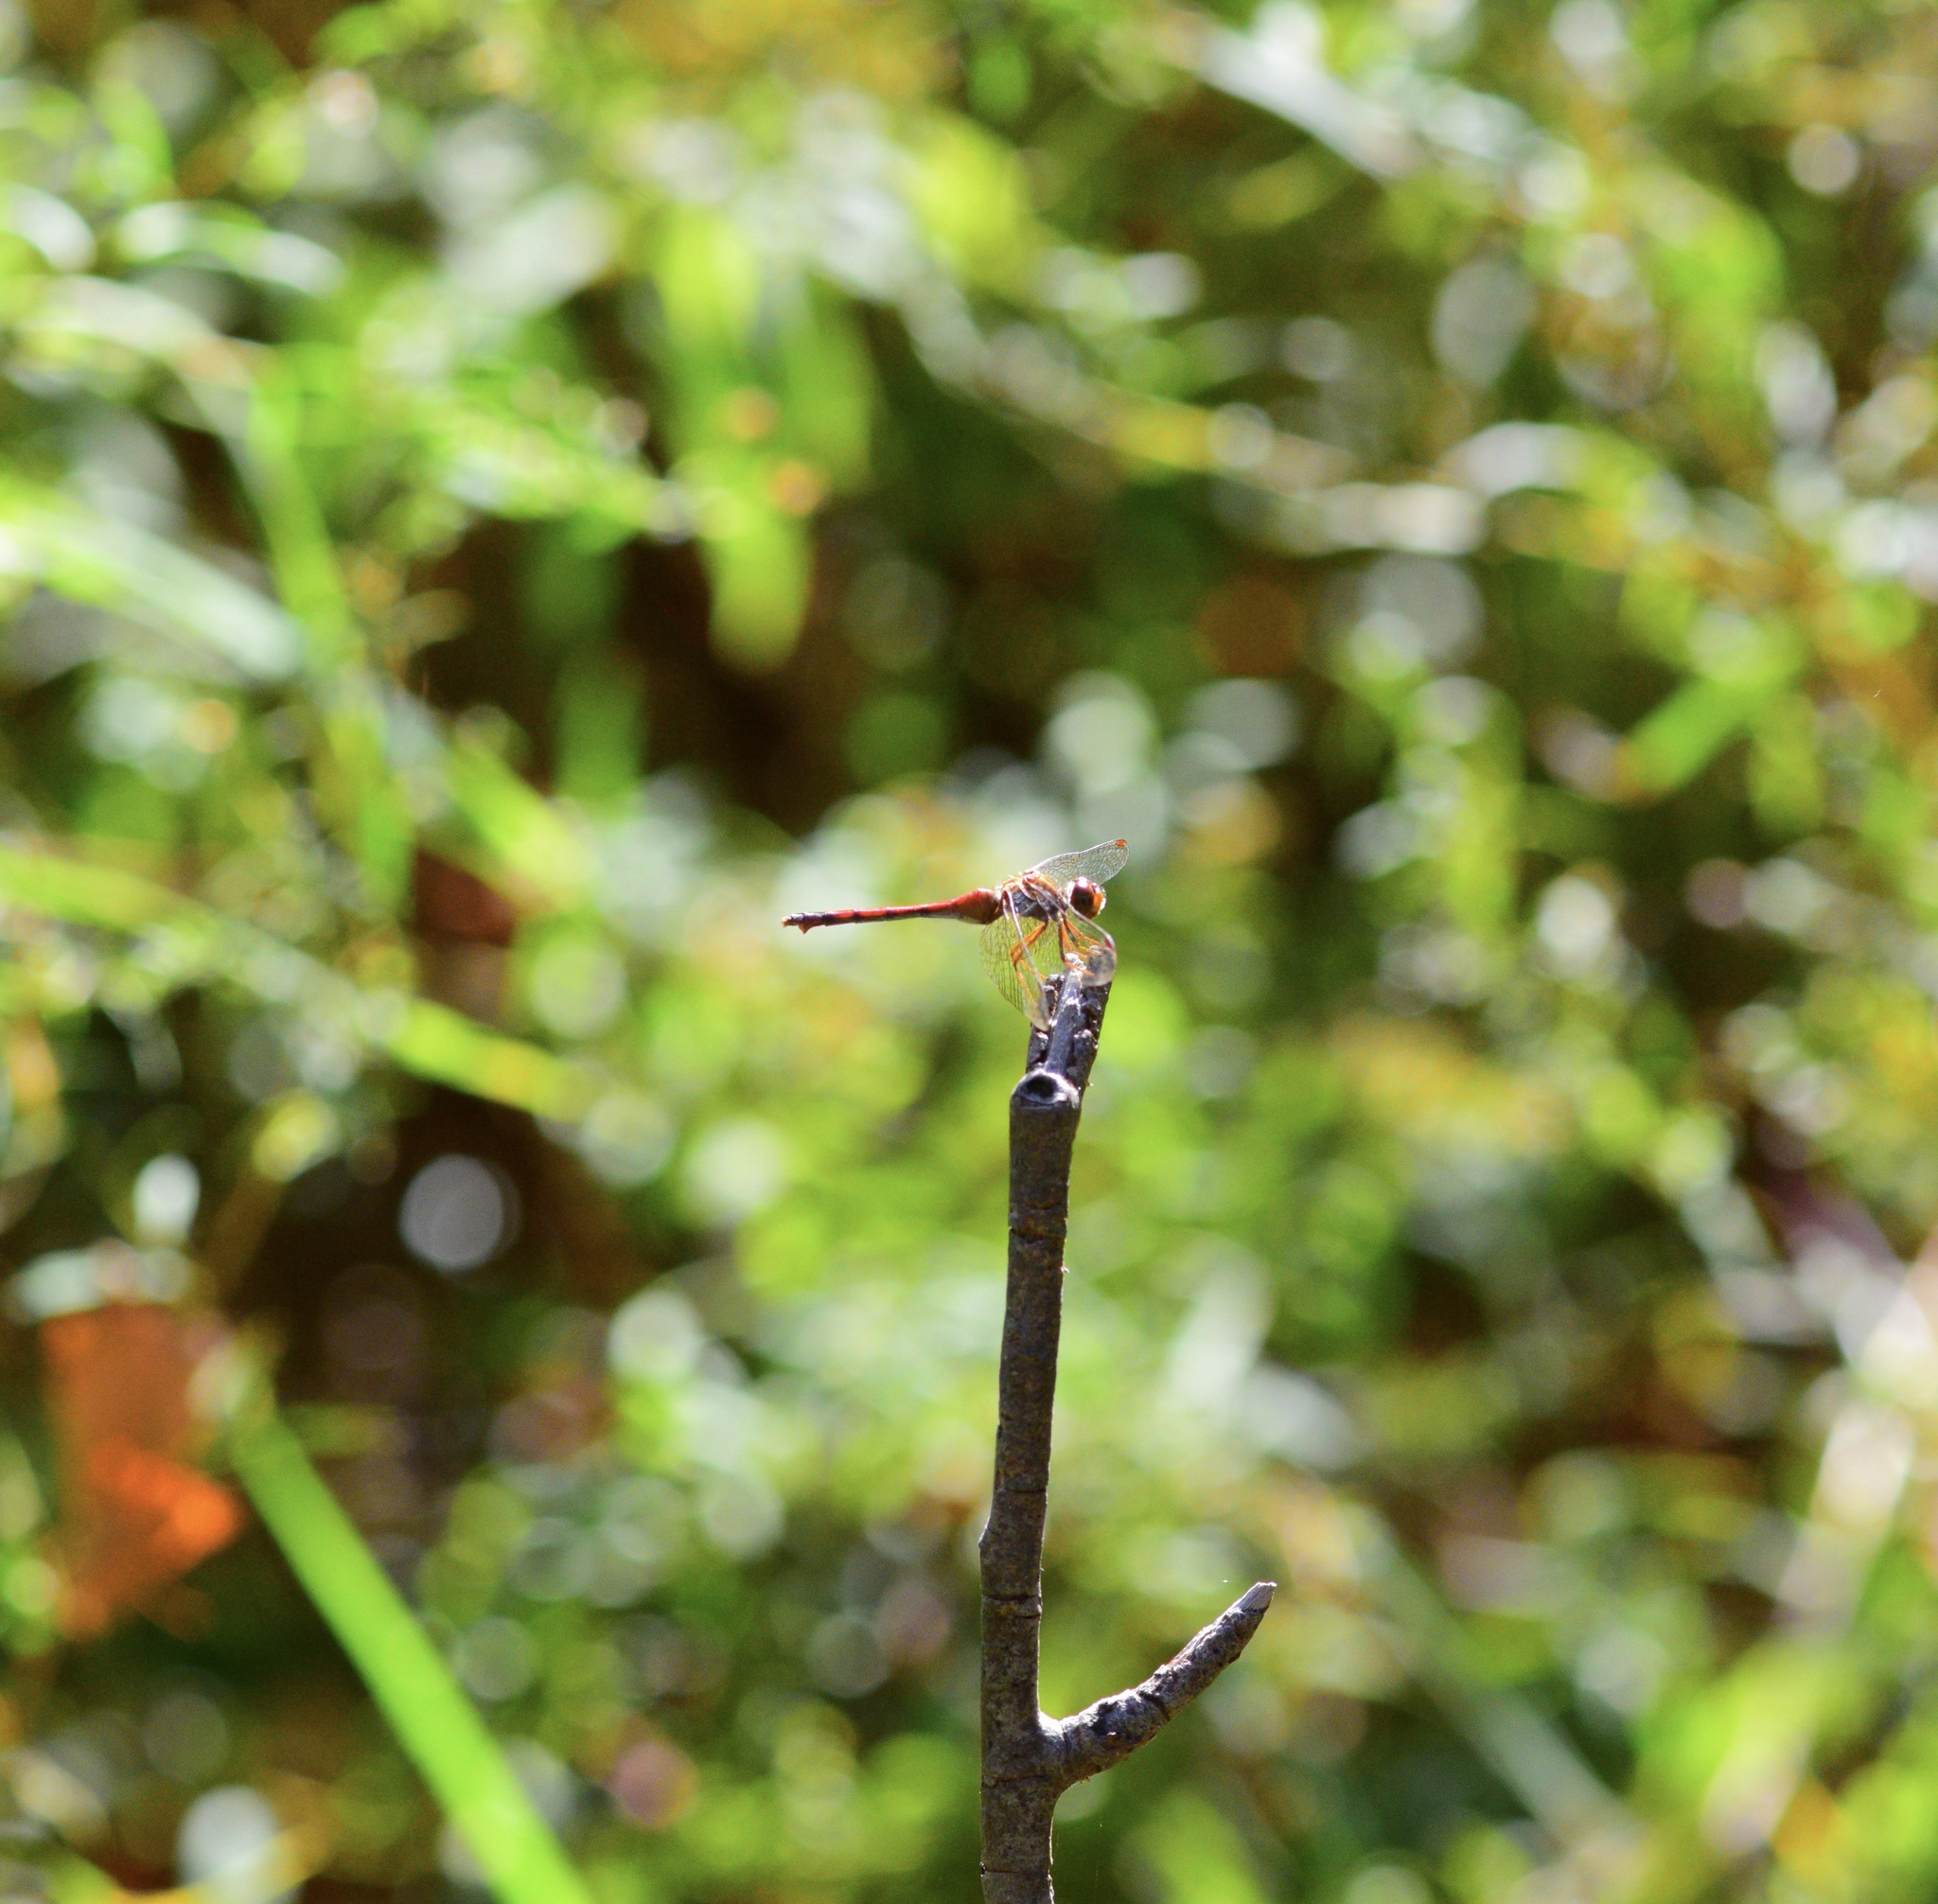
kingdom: Animalia
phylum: Arthropoda
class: Insecta
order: Odonata
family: Libellulidae
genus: Sympetrum
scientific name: Sympetrum vicinum
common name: Autumn meadowhawk
